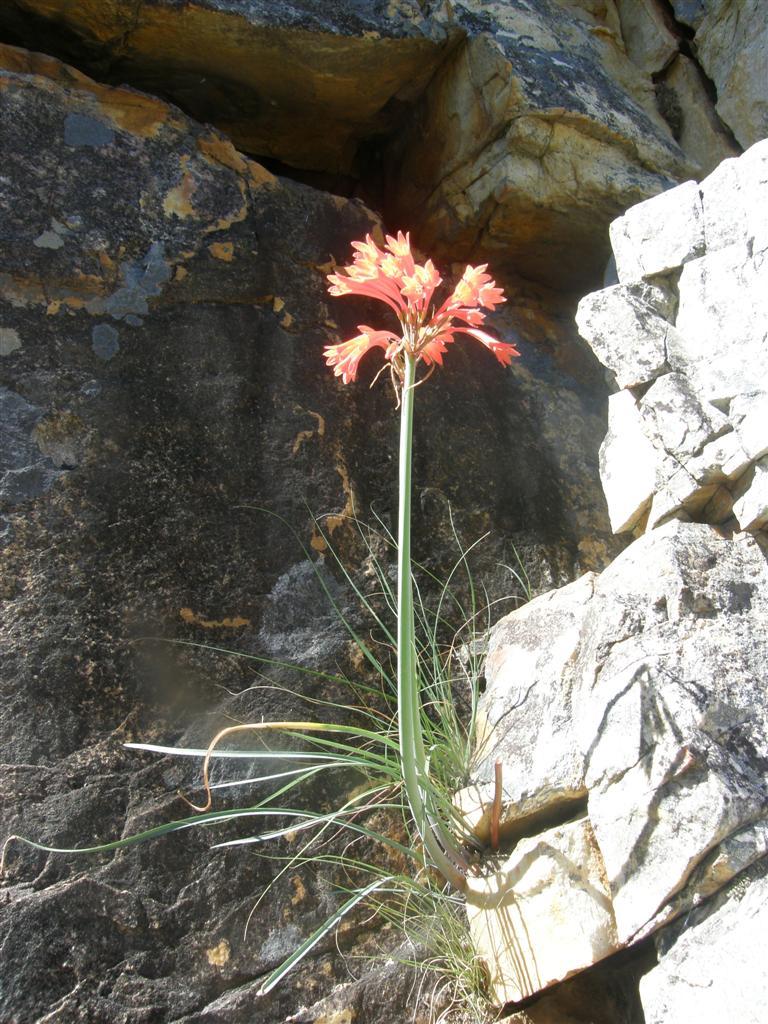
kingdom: Plantae
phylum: Tracheophyta
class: Liliopsida
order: Asparagales
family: Amaryllidaceae
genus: Cyrtanthus
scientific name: Cyrtanthus collinus
